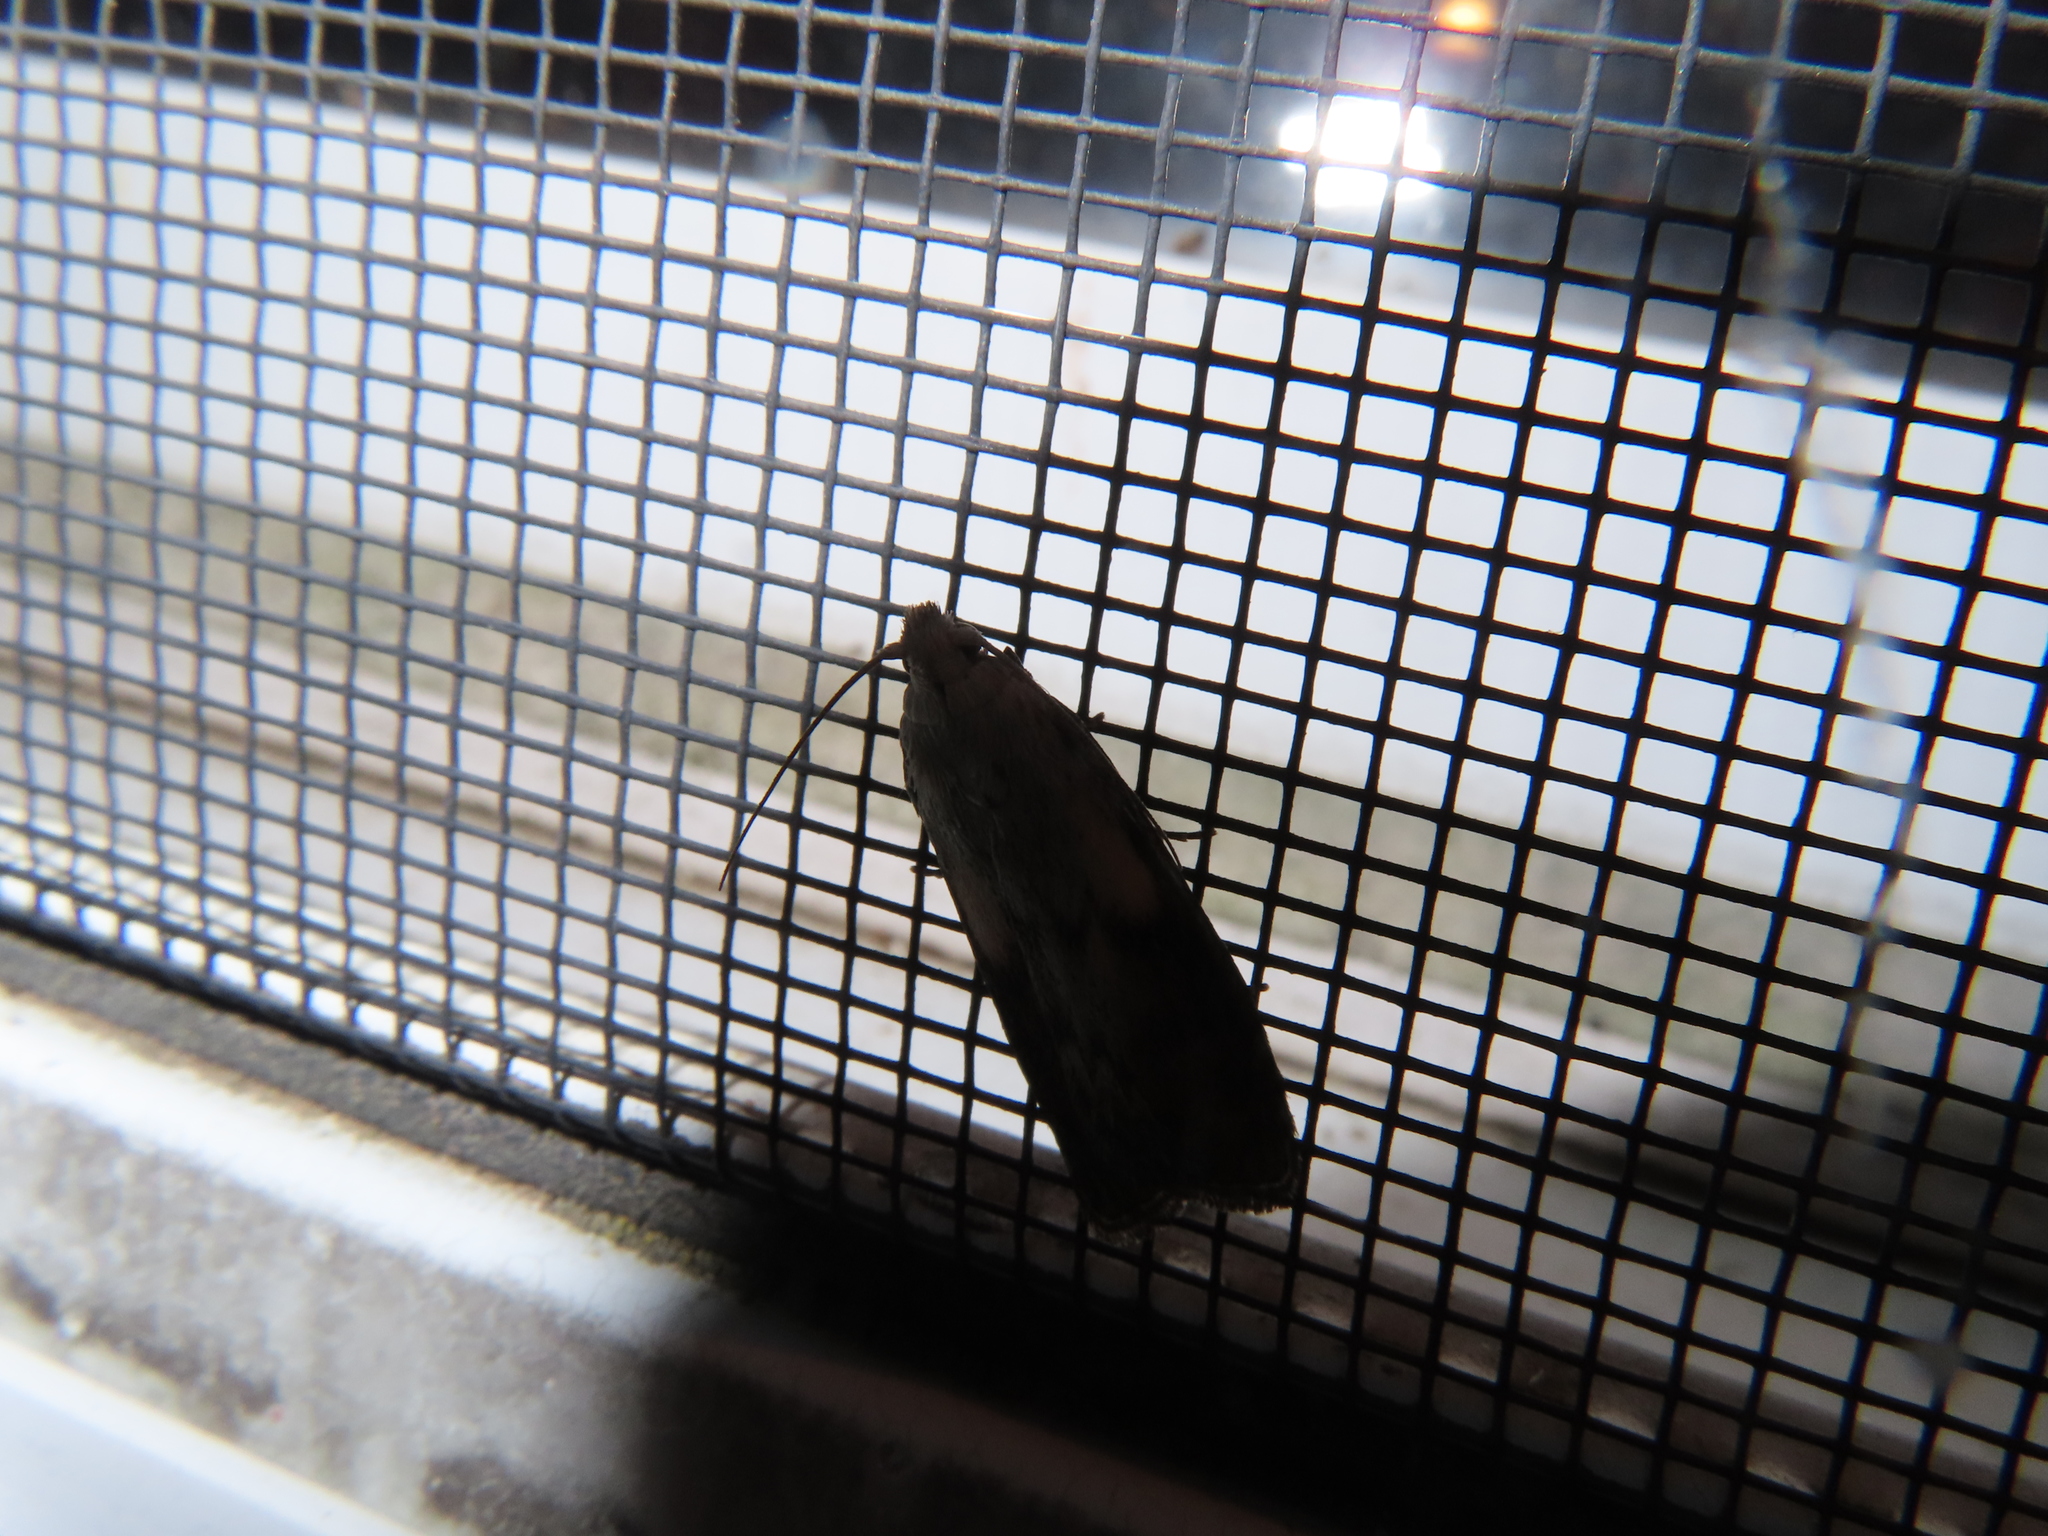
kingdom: Animalia
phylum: Arthropoda
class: Insecta
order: Lepidoptera
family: Pyralidae
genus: Aphomia
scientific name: Aphomia sociella
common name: Bee moth
